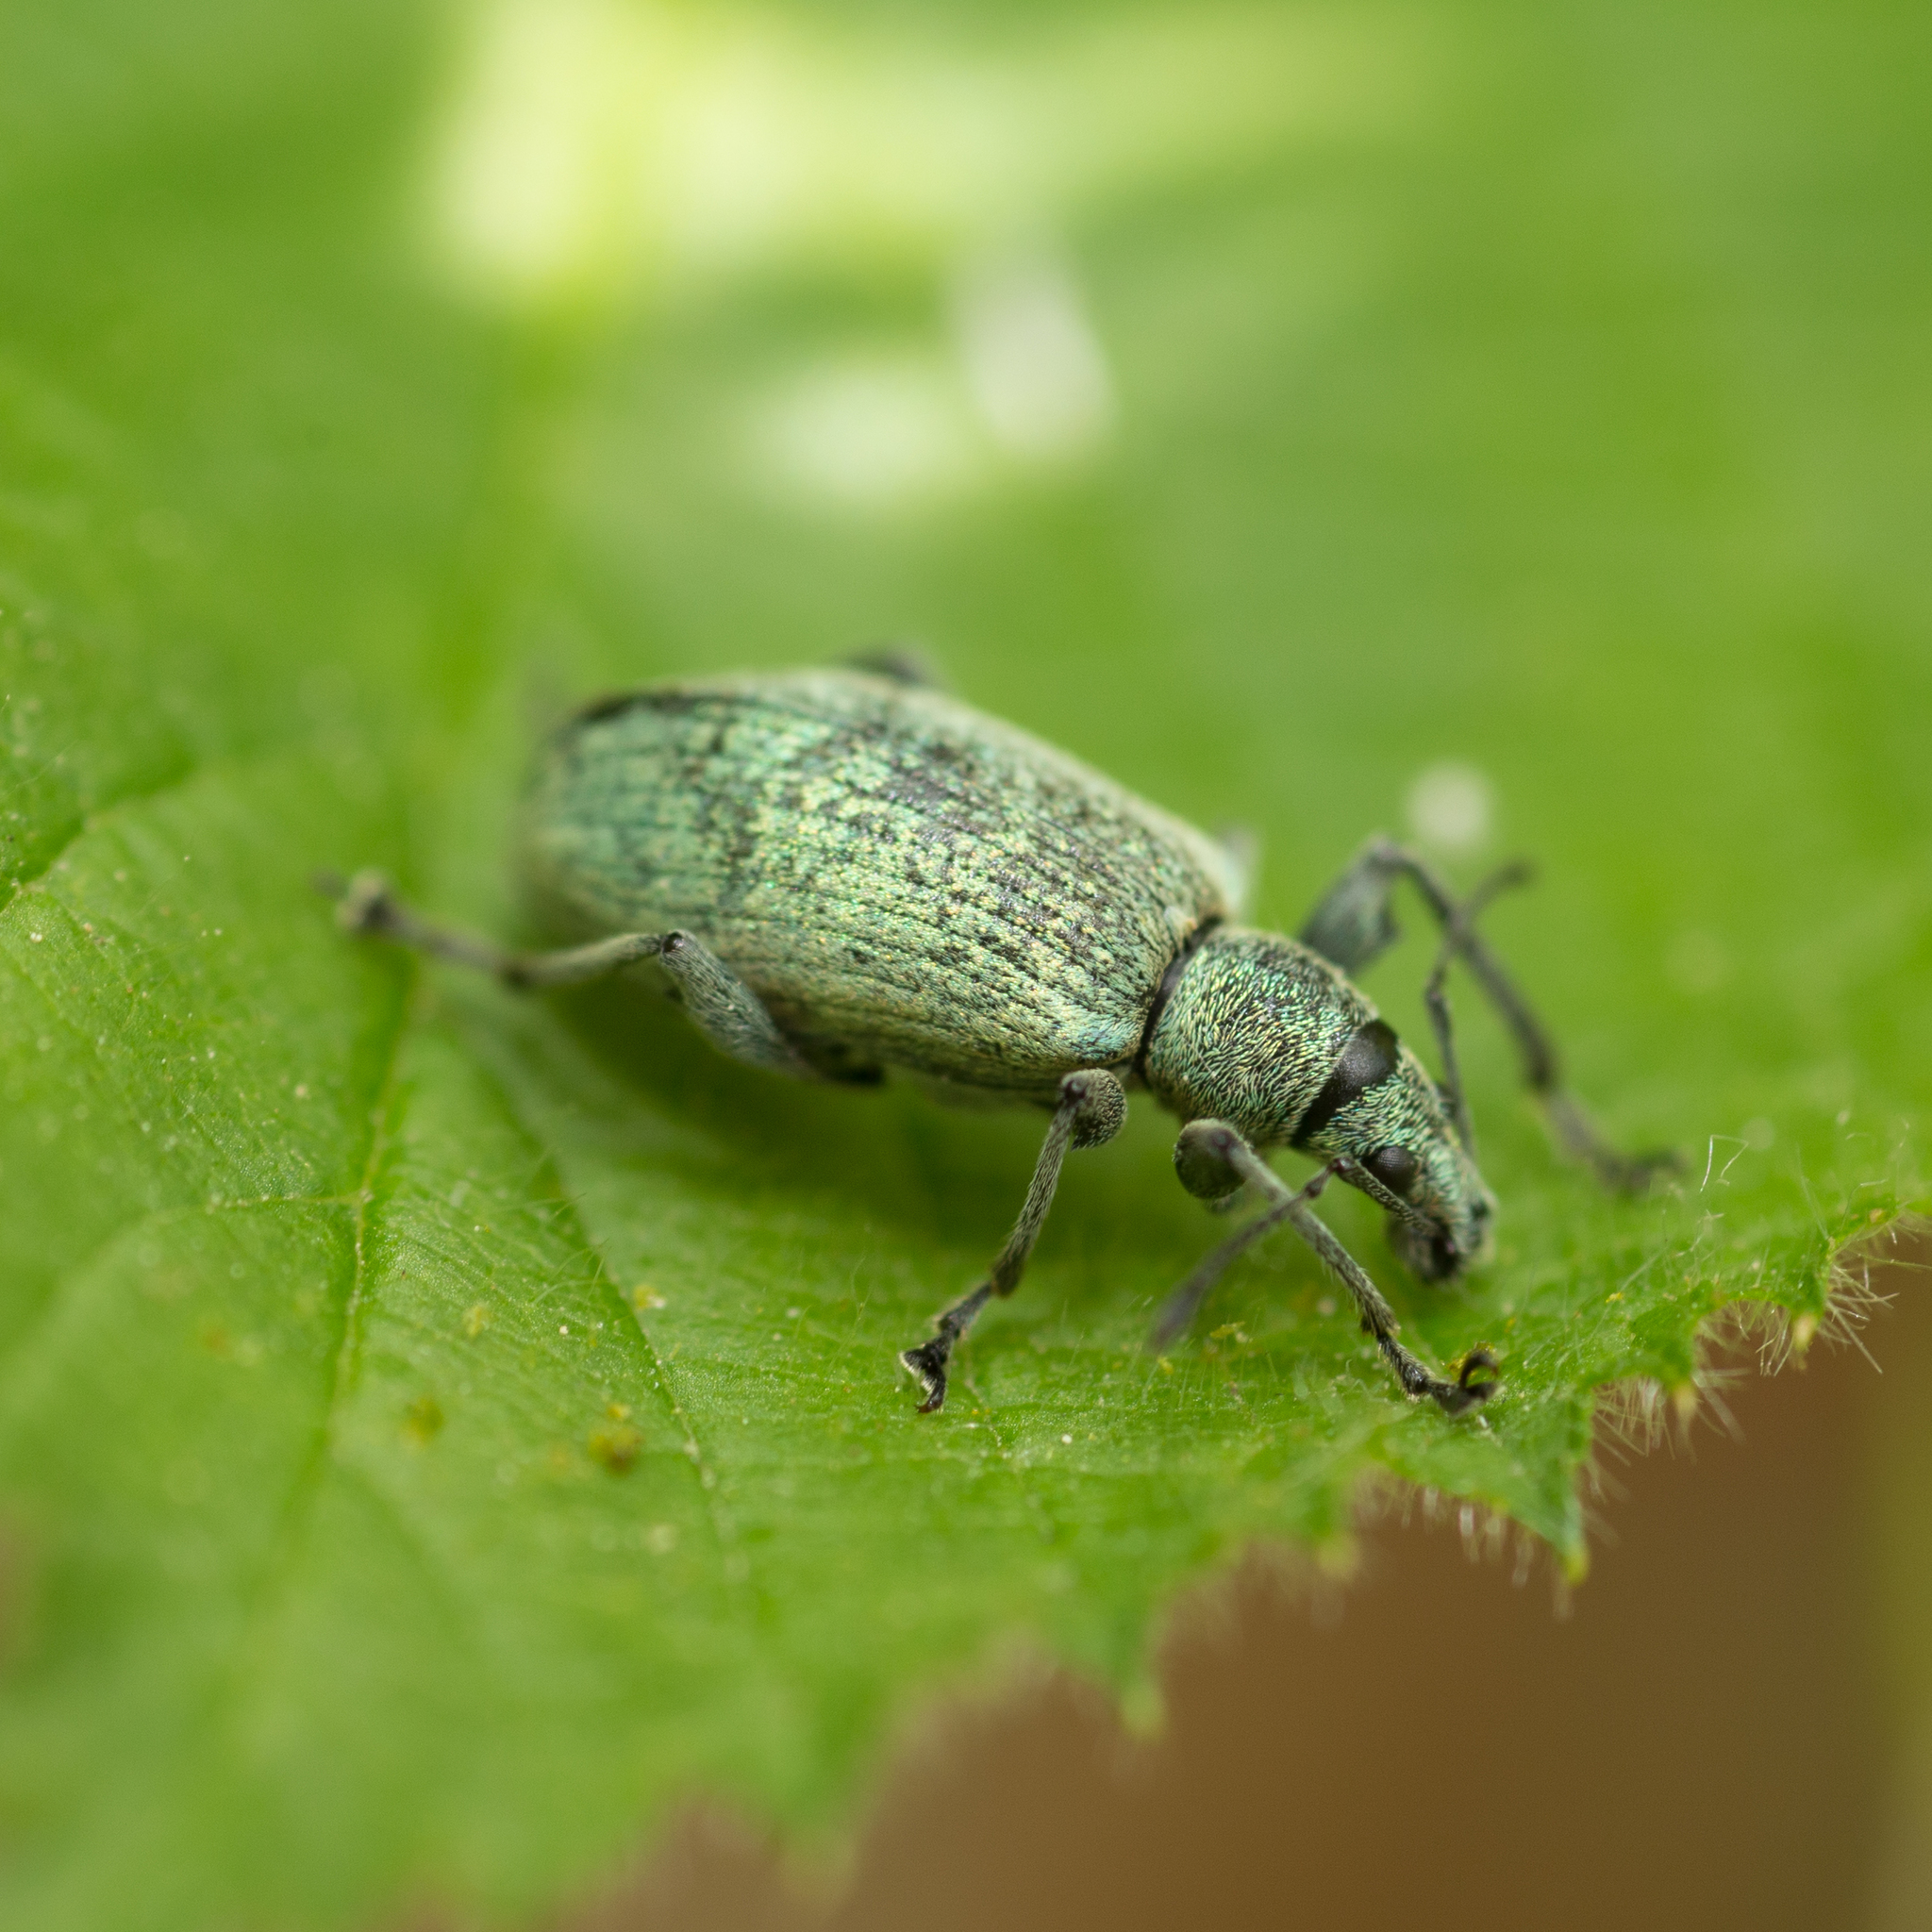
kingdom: Animalia
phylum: Arthropoda
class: Insecta
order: Coleoptera
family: Curculionidae
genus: Phyllobius
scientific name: Phyllobius pomaceus
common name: Green nettle weevil
